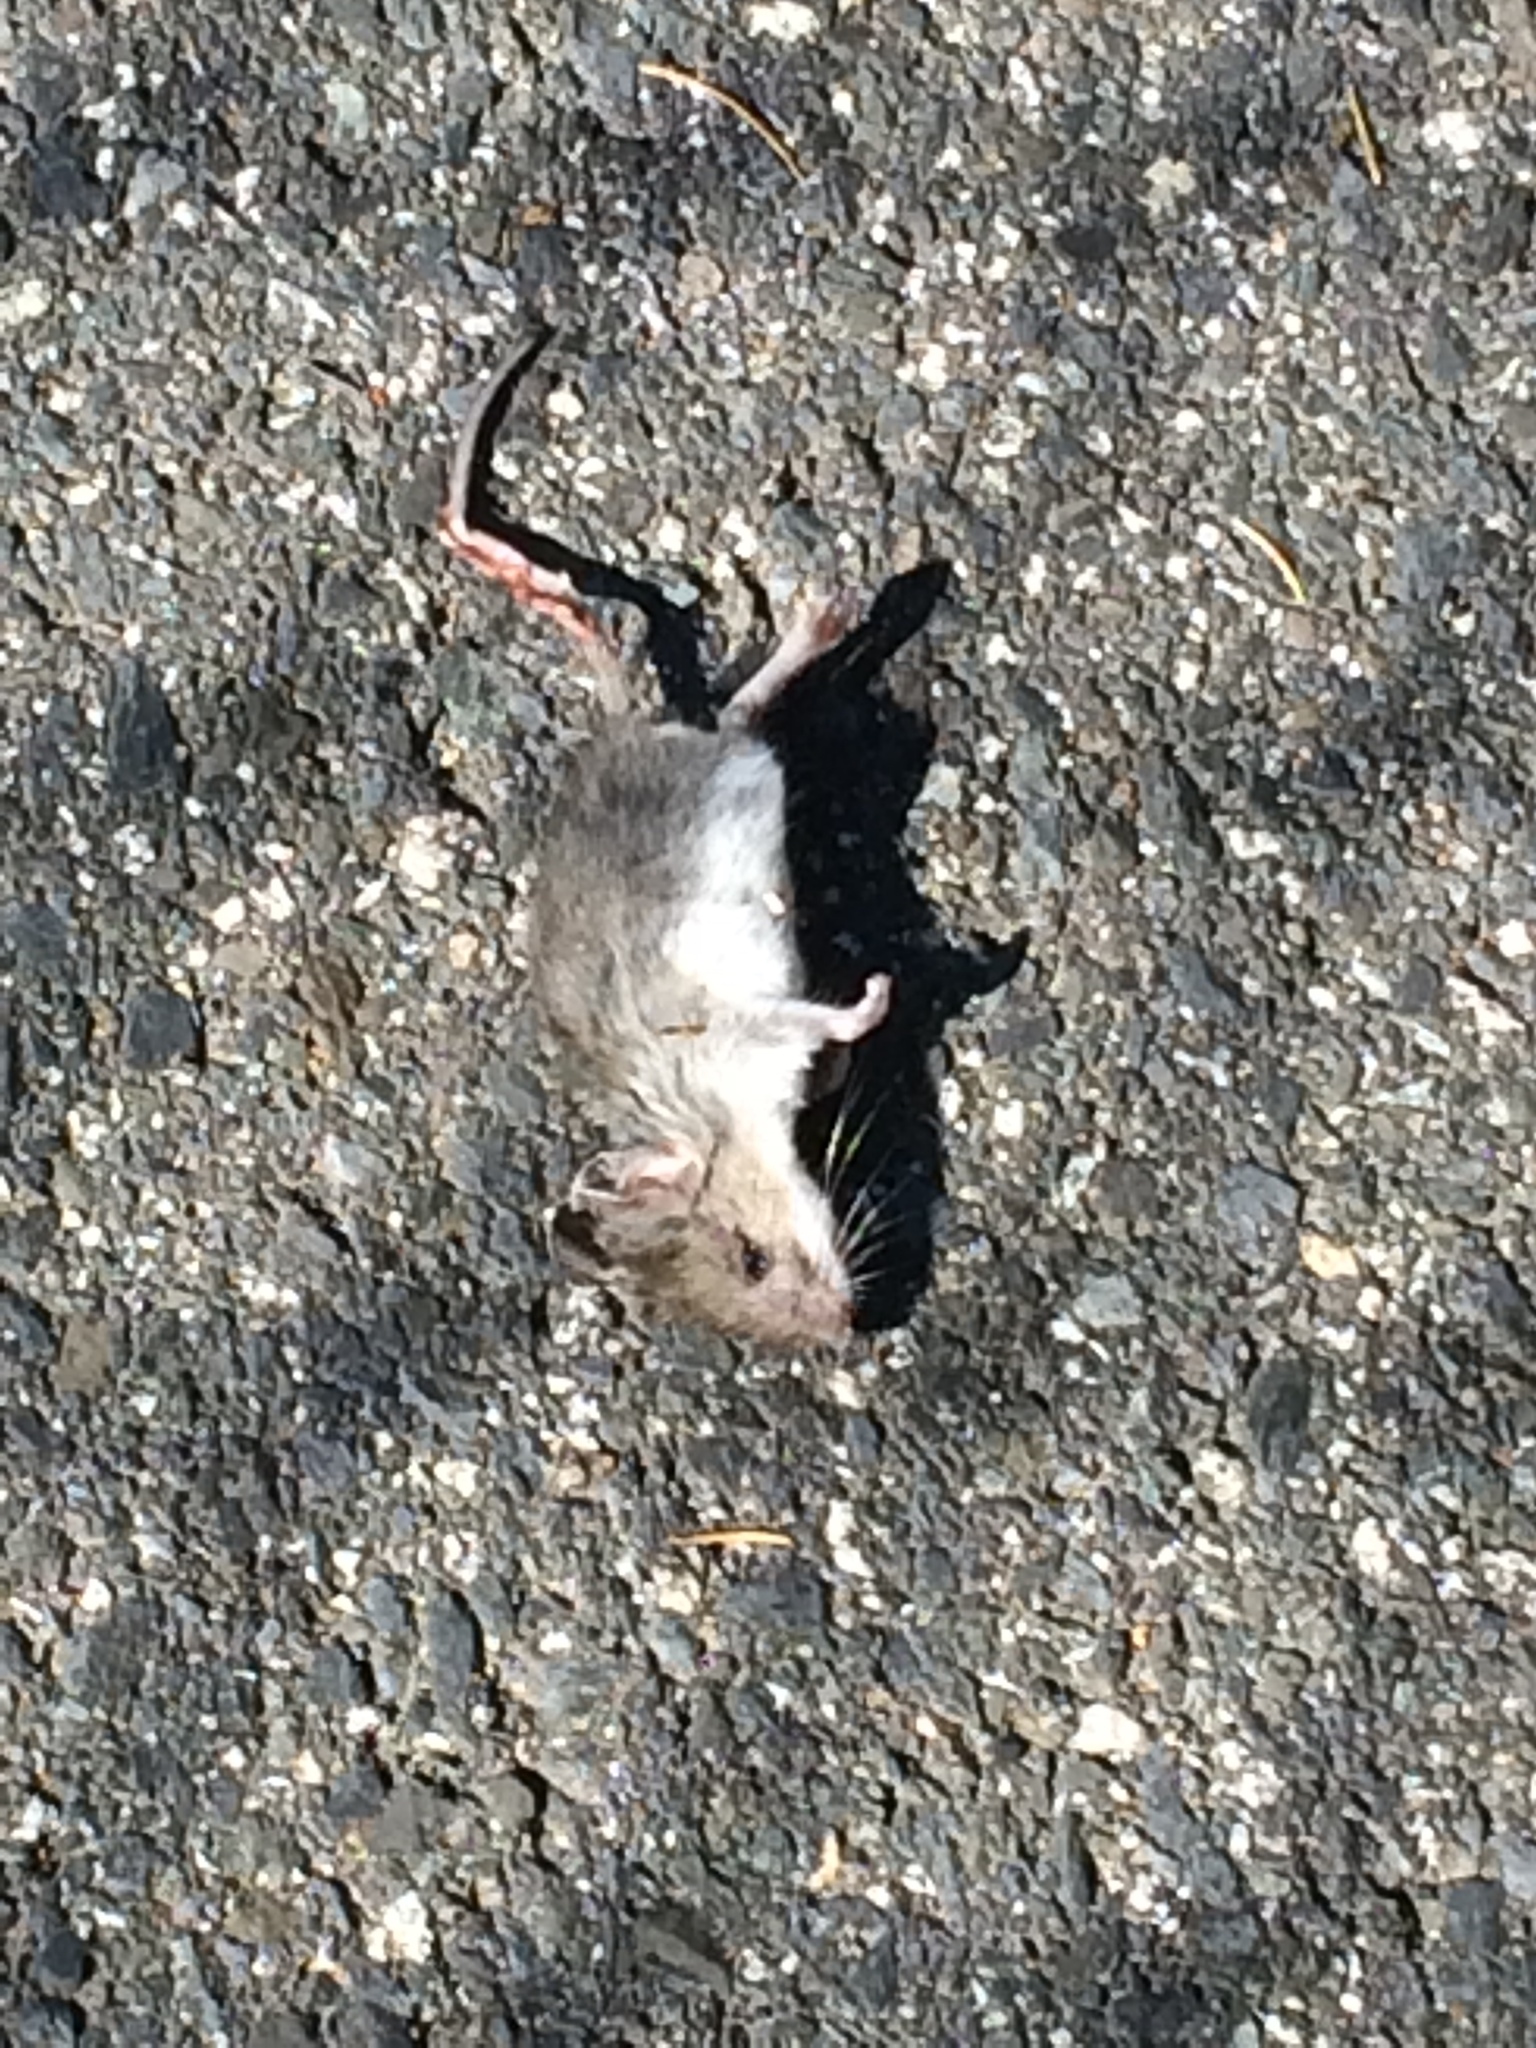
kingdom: Animalia
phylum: Chordata
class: Mammalia
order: Rodentia
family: Cricetidae
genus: Peromyscus
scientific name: Peromyscus
